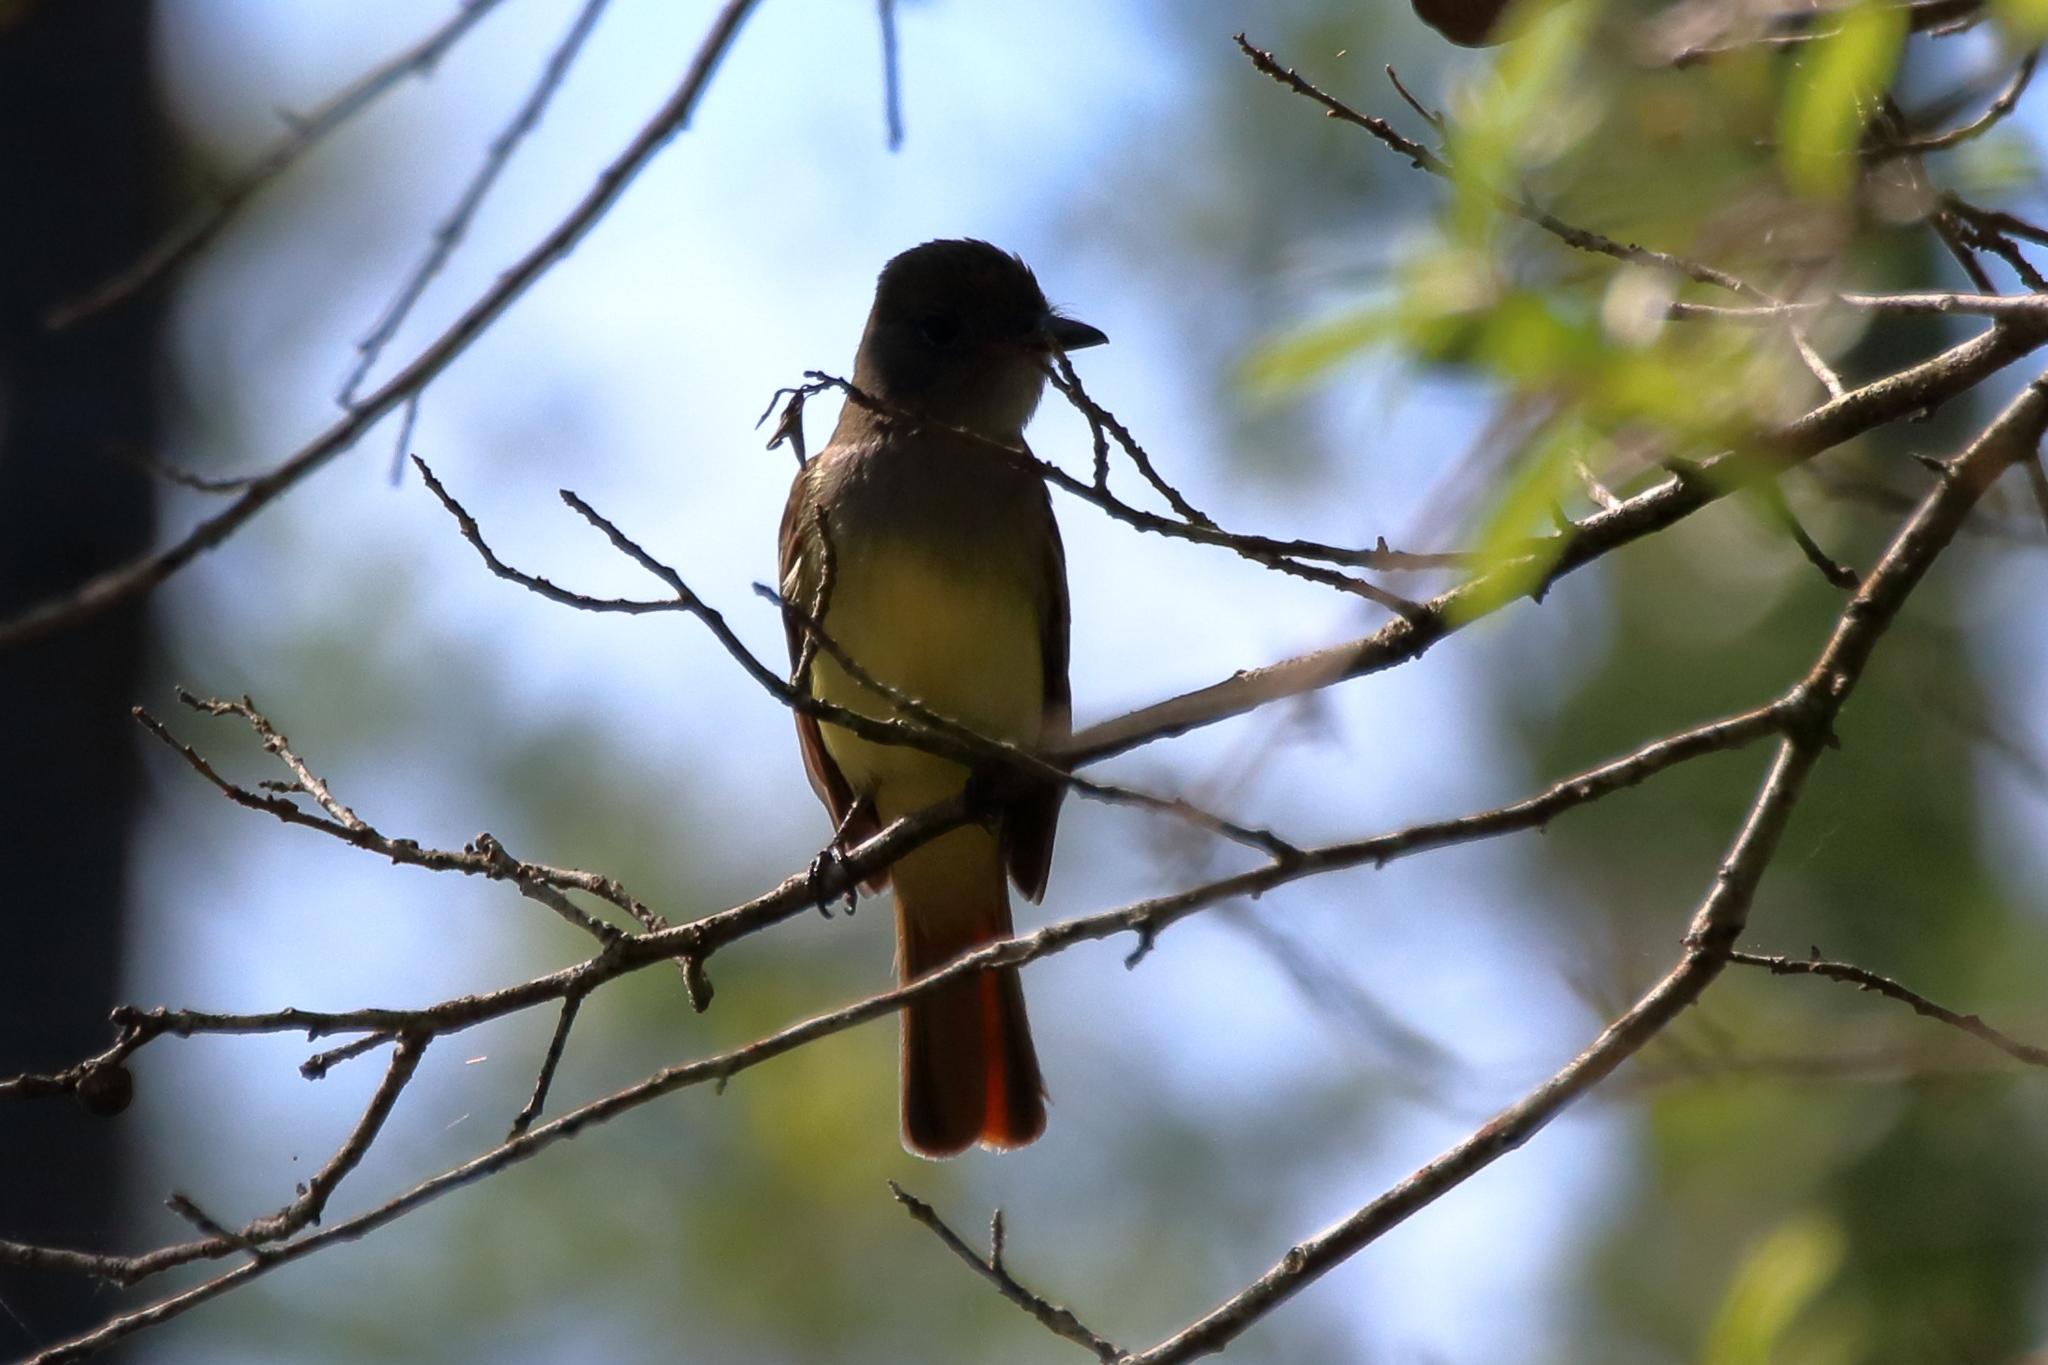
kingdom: Animalia
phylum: Chordata
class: Aves
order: Passeriformes
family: Tyrannidae
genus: Myiarchus
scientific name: Myiarchus crinitus
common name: Great crested flycatcher
